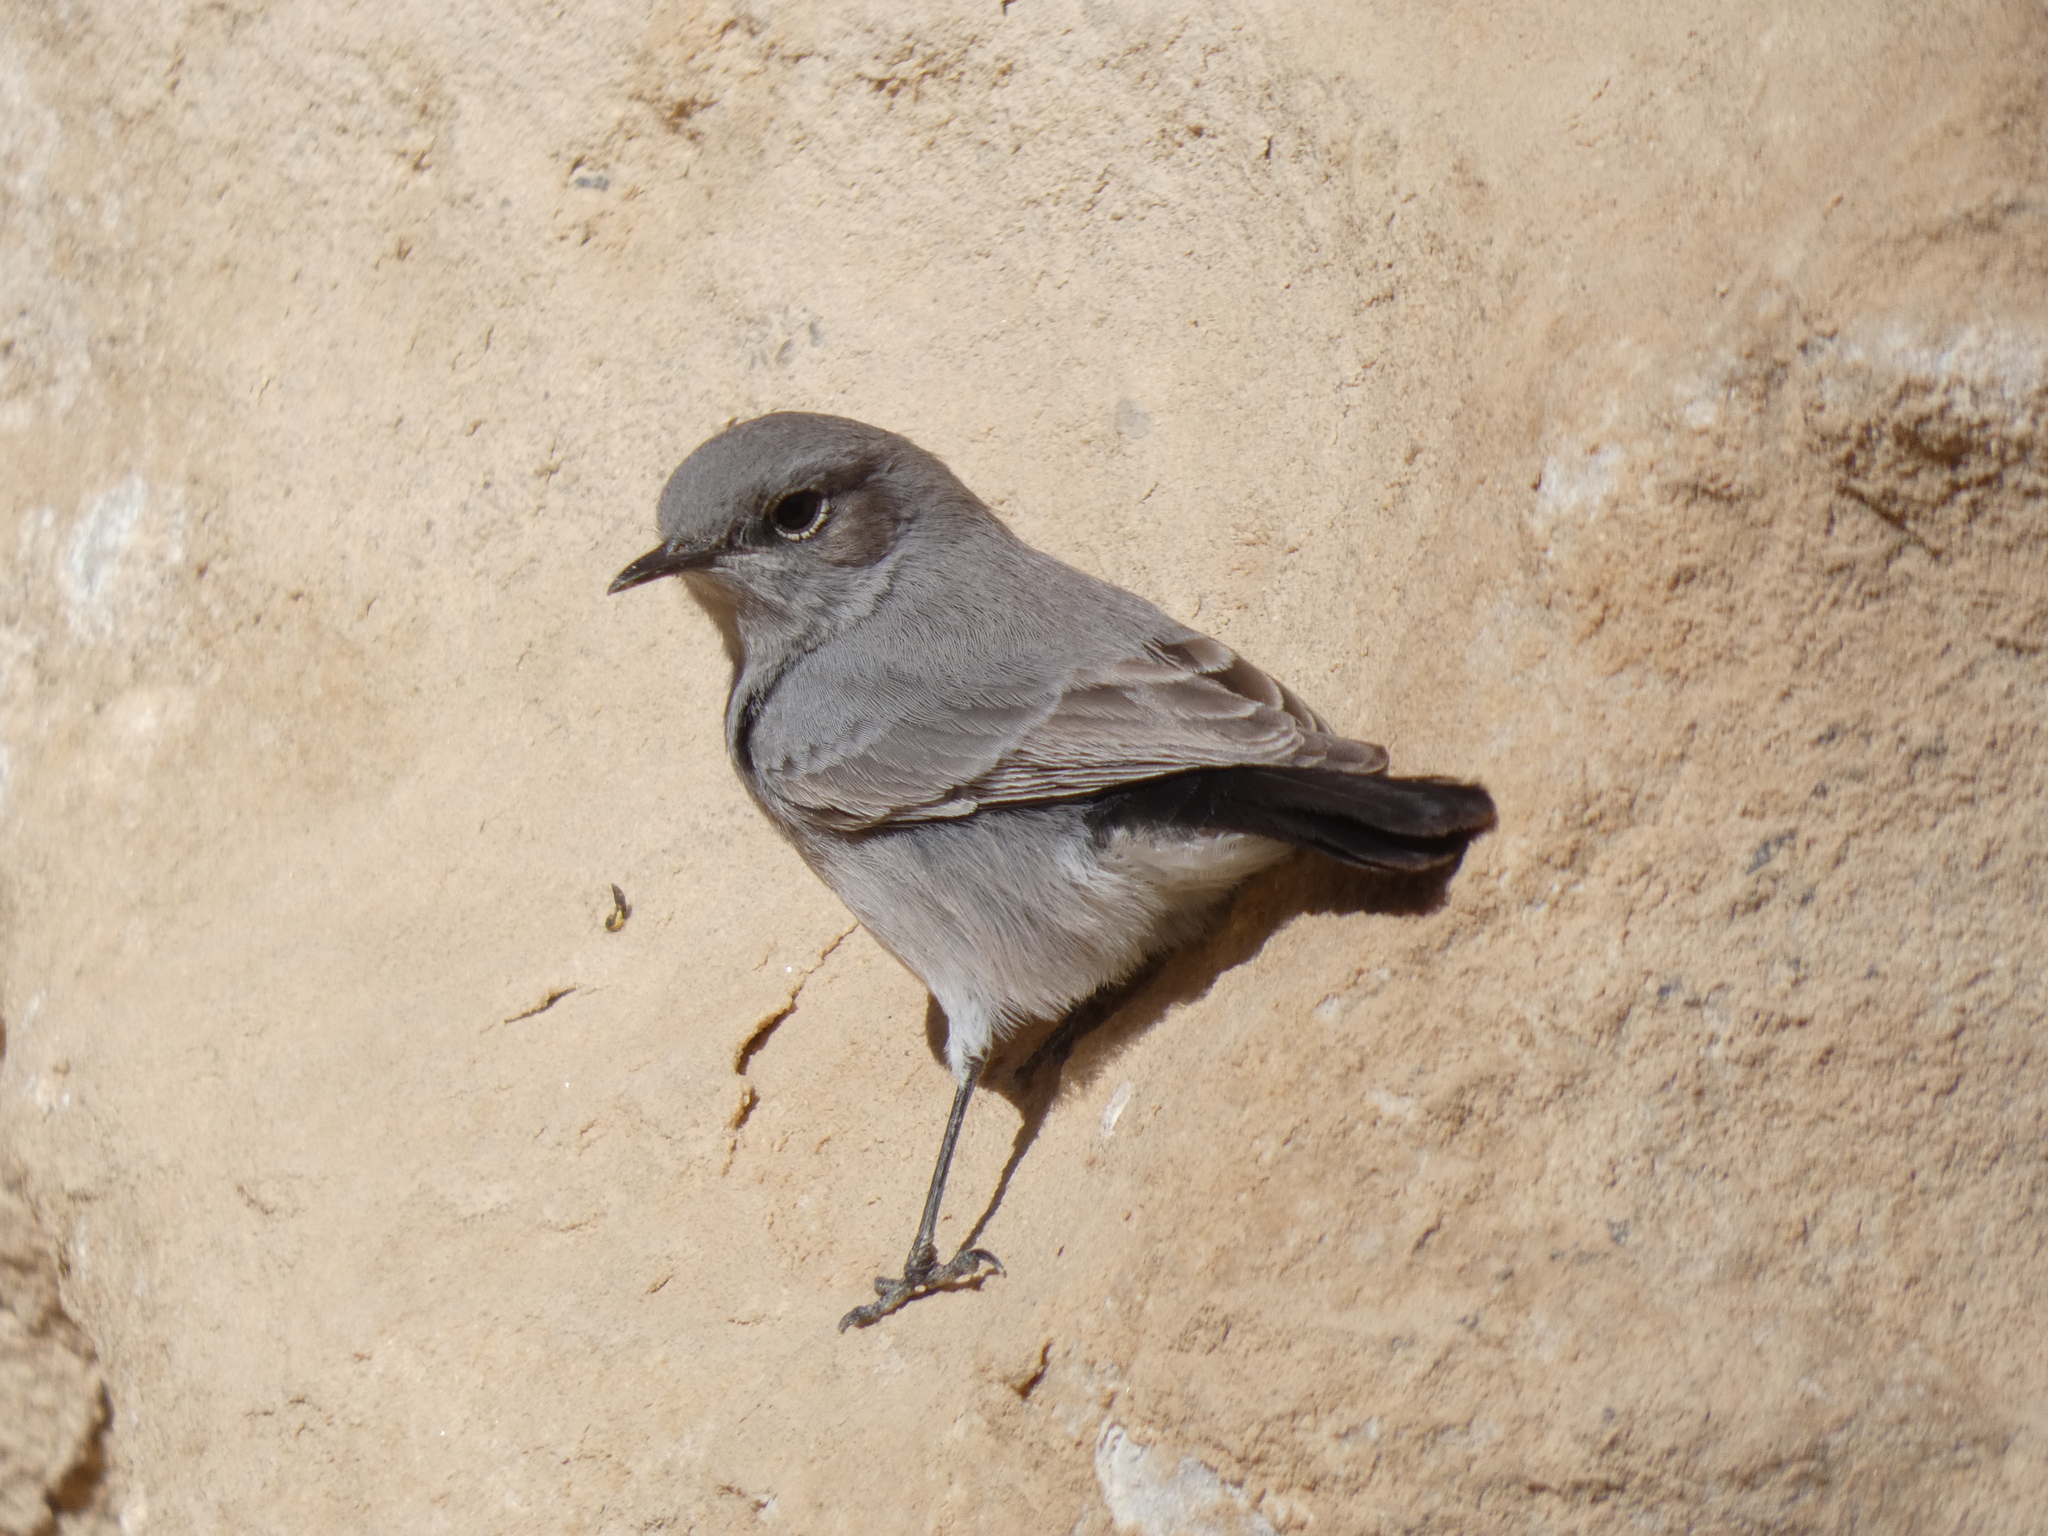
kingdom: Animalia
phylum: Chordata
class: Aves
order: Passeriformes
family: Muscicapidae
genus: Oenanthe
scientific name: Oenanthe melanura
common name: Blackstart
